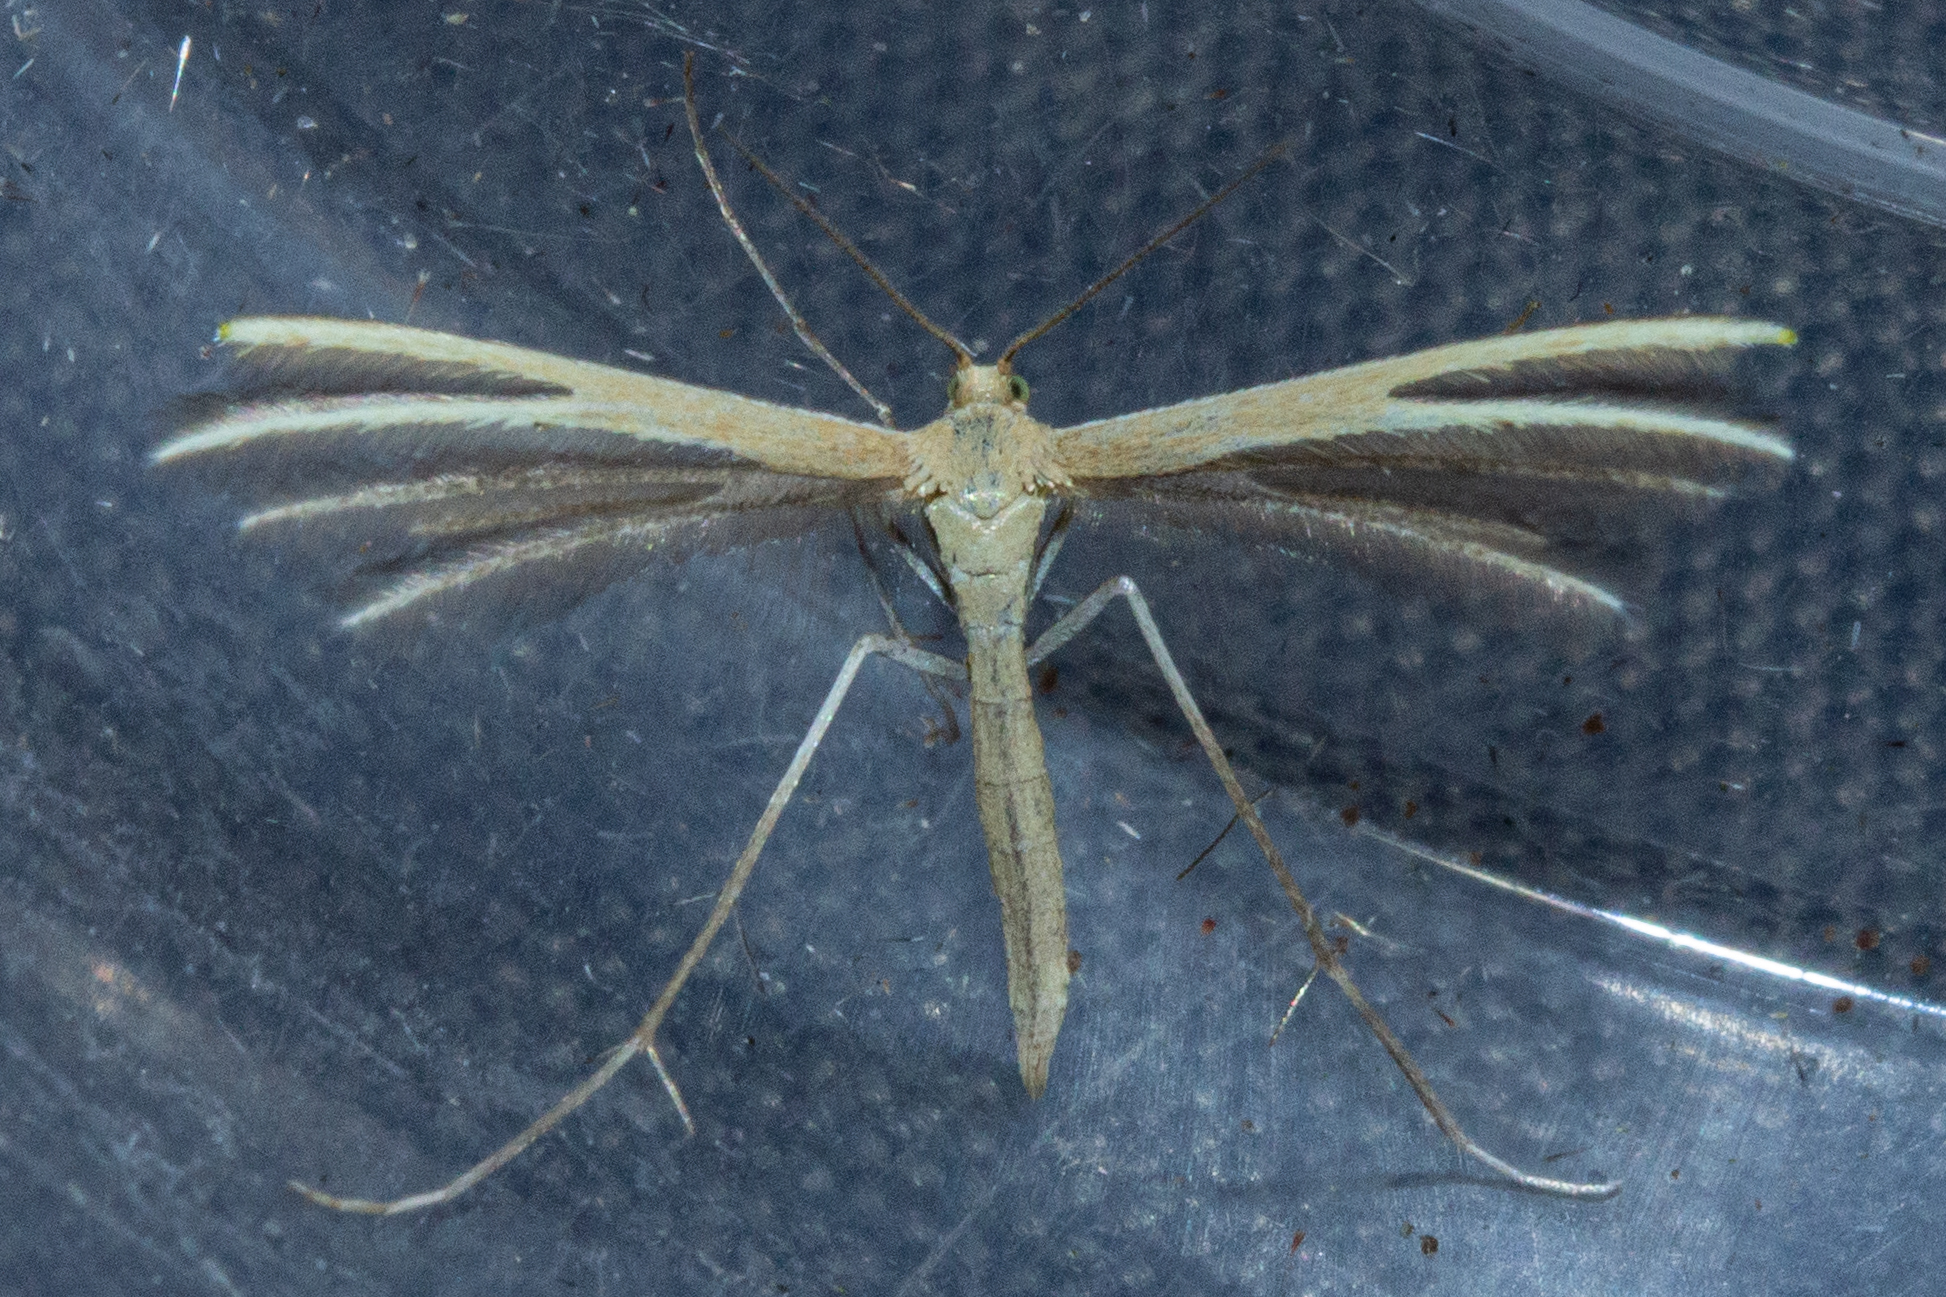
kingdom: Animalia
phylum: Arthropoda
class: Insecta
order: Lepidoptera
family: Pterophoridae
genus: Pterophorus
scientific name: Pterophorus innotatalis
